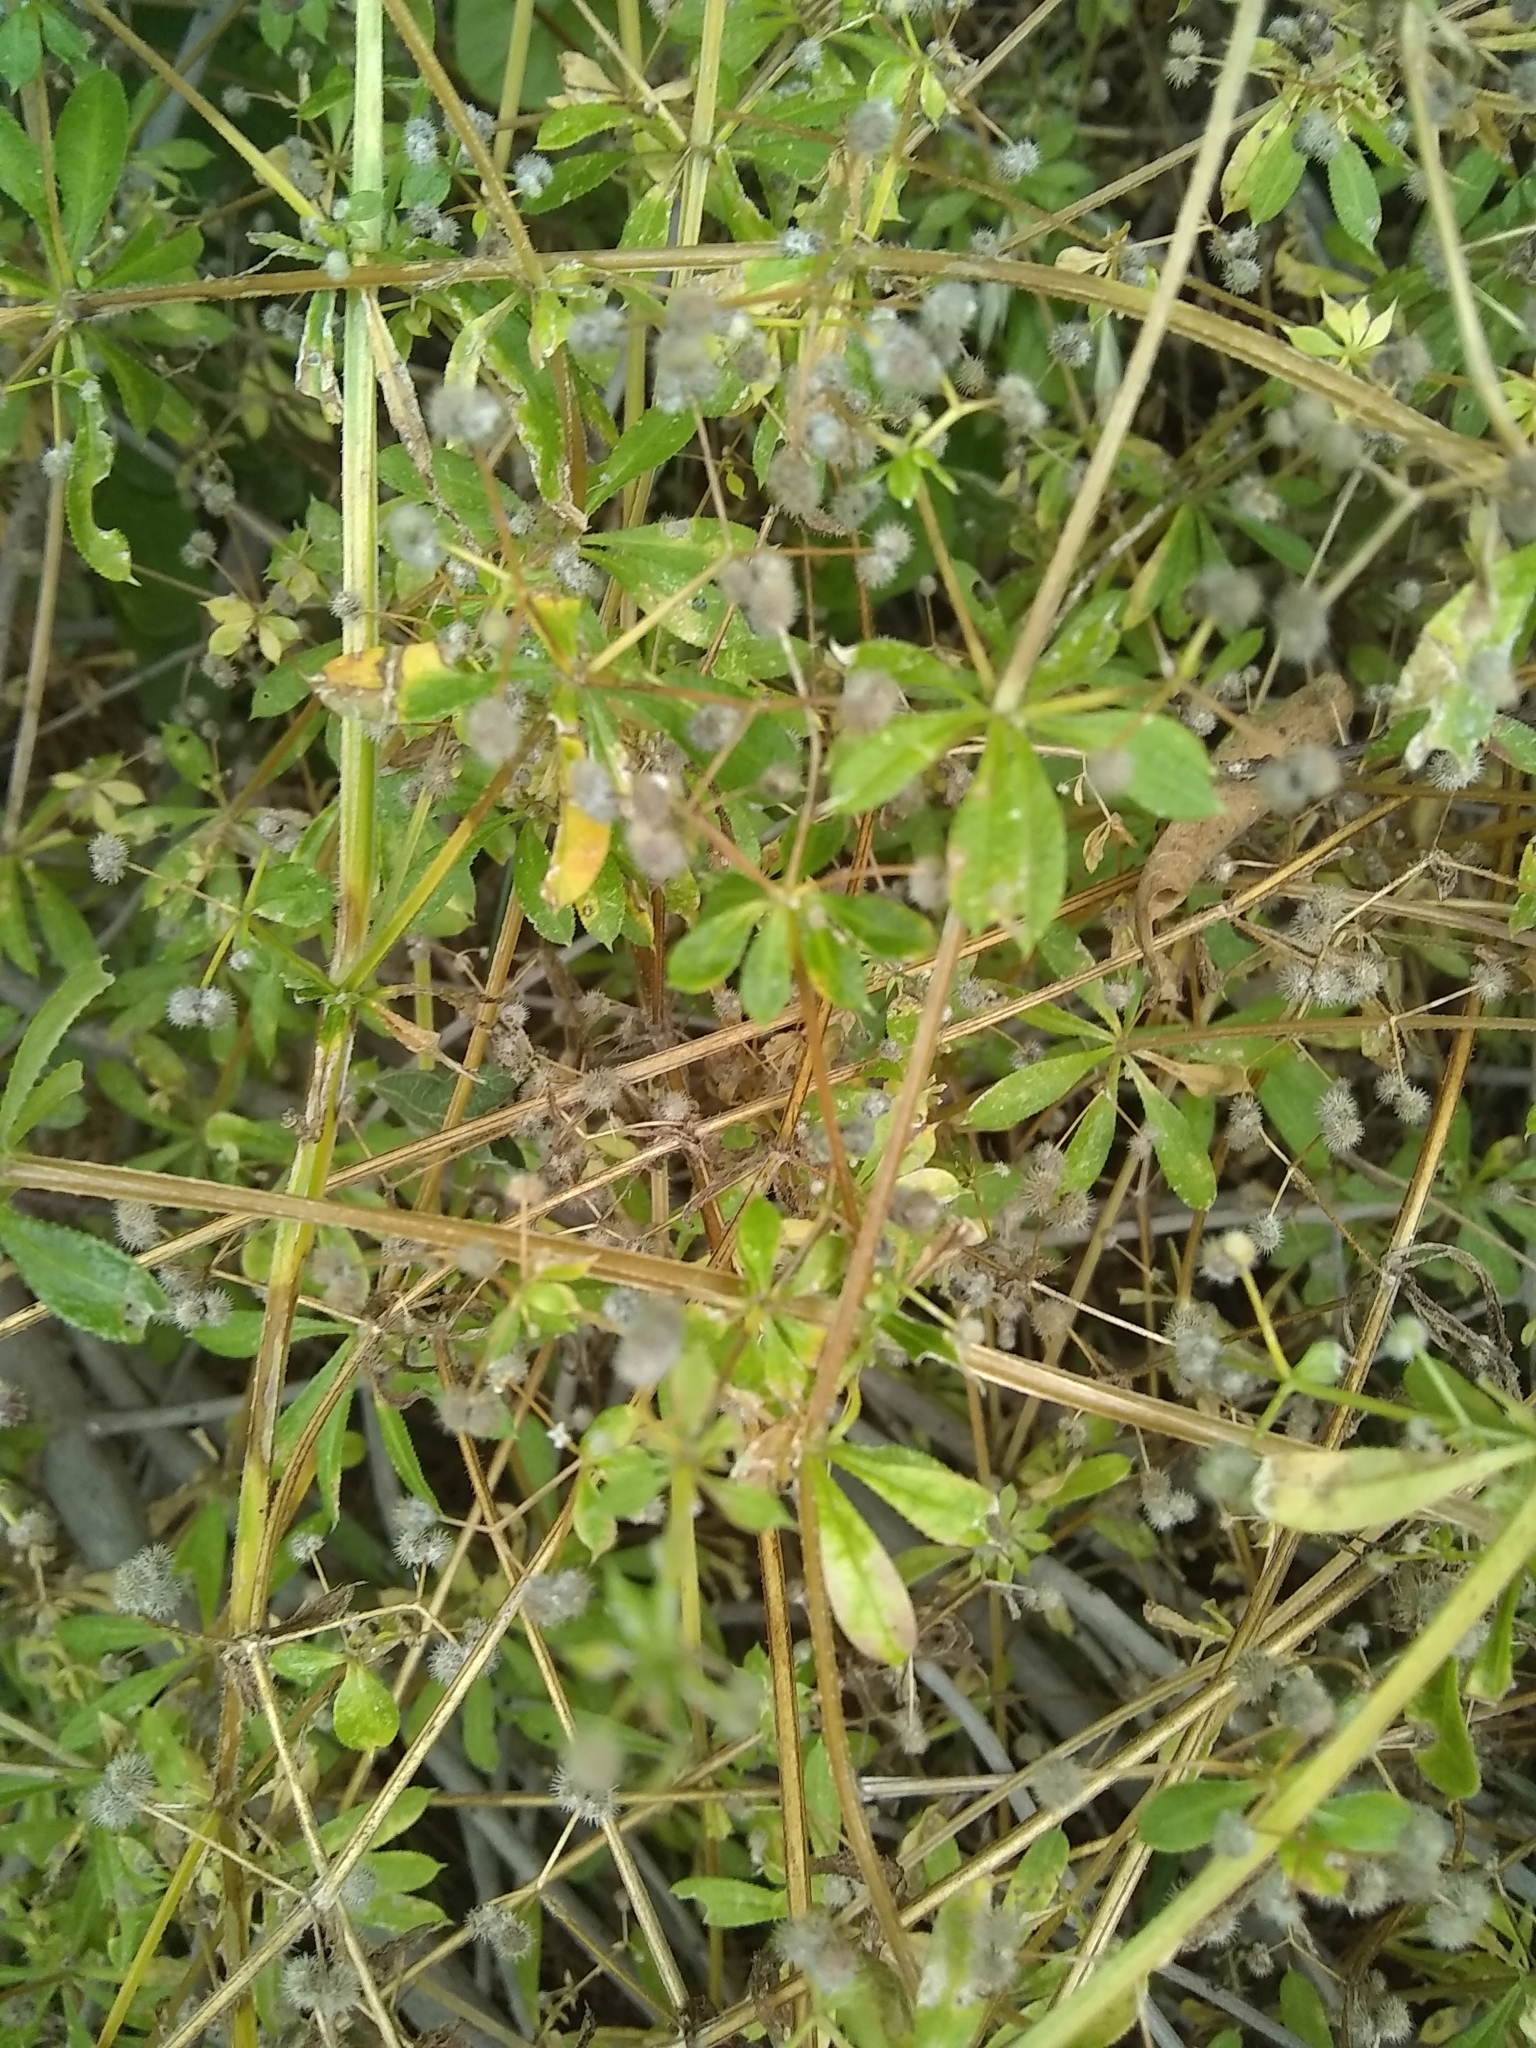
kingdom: Plantae
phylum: Tracheophyta
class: Magnoliopsida
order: Gentianales
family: Rubiaceae
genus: Galium
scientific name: Galium aparine
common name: Cleavers
